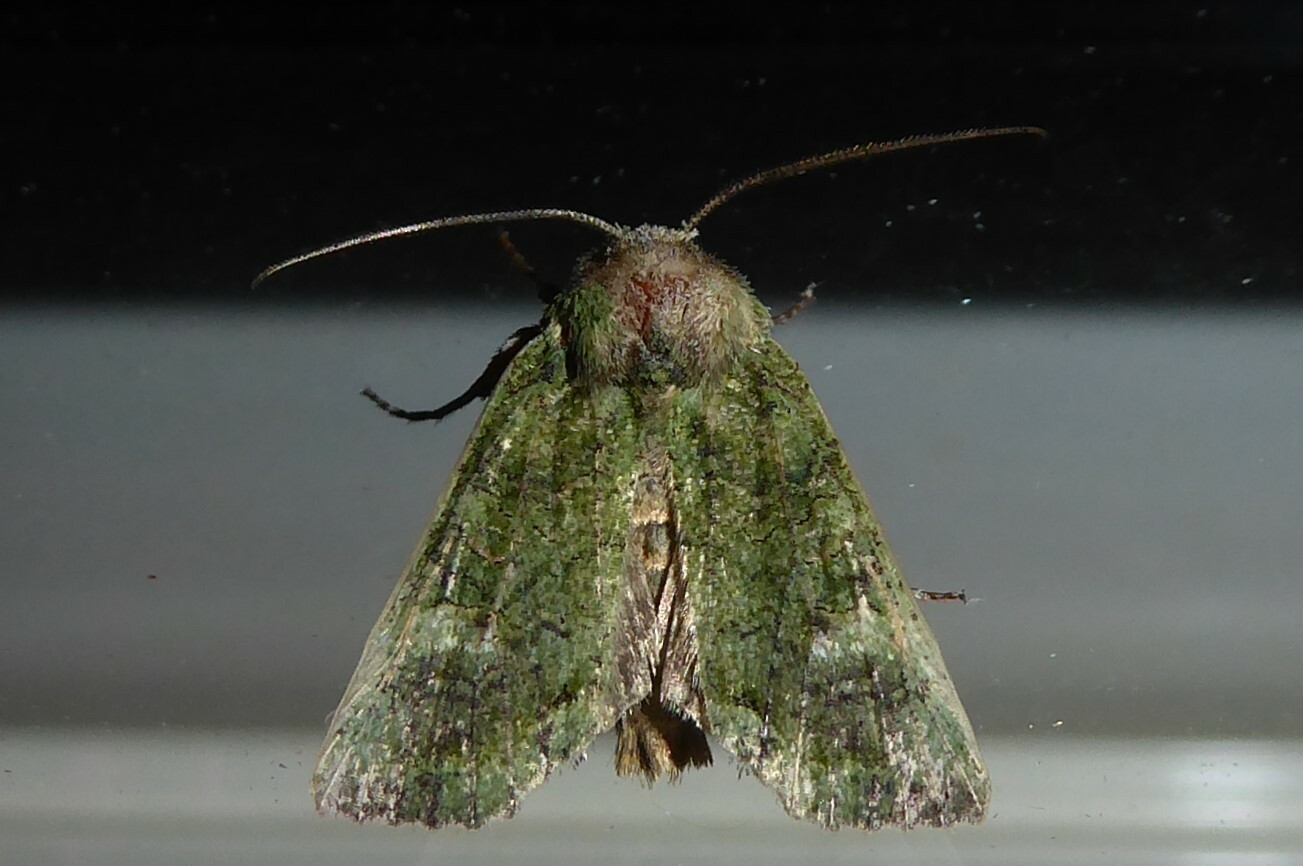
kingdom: Animalia
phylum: Arthropoda
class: Insecta
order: Lepidoptera
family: Noctuidae
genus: Meterana
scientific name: Meterana levis
